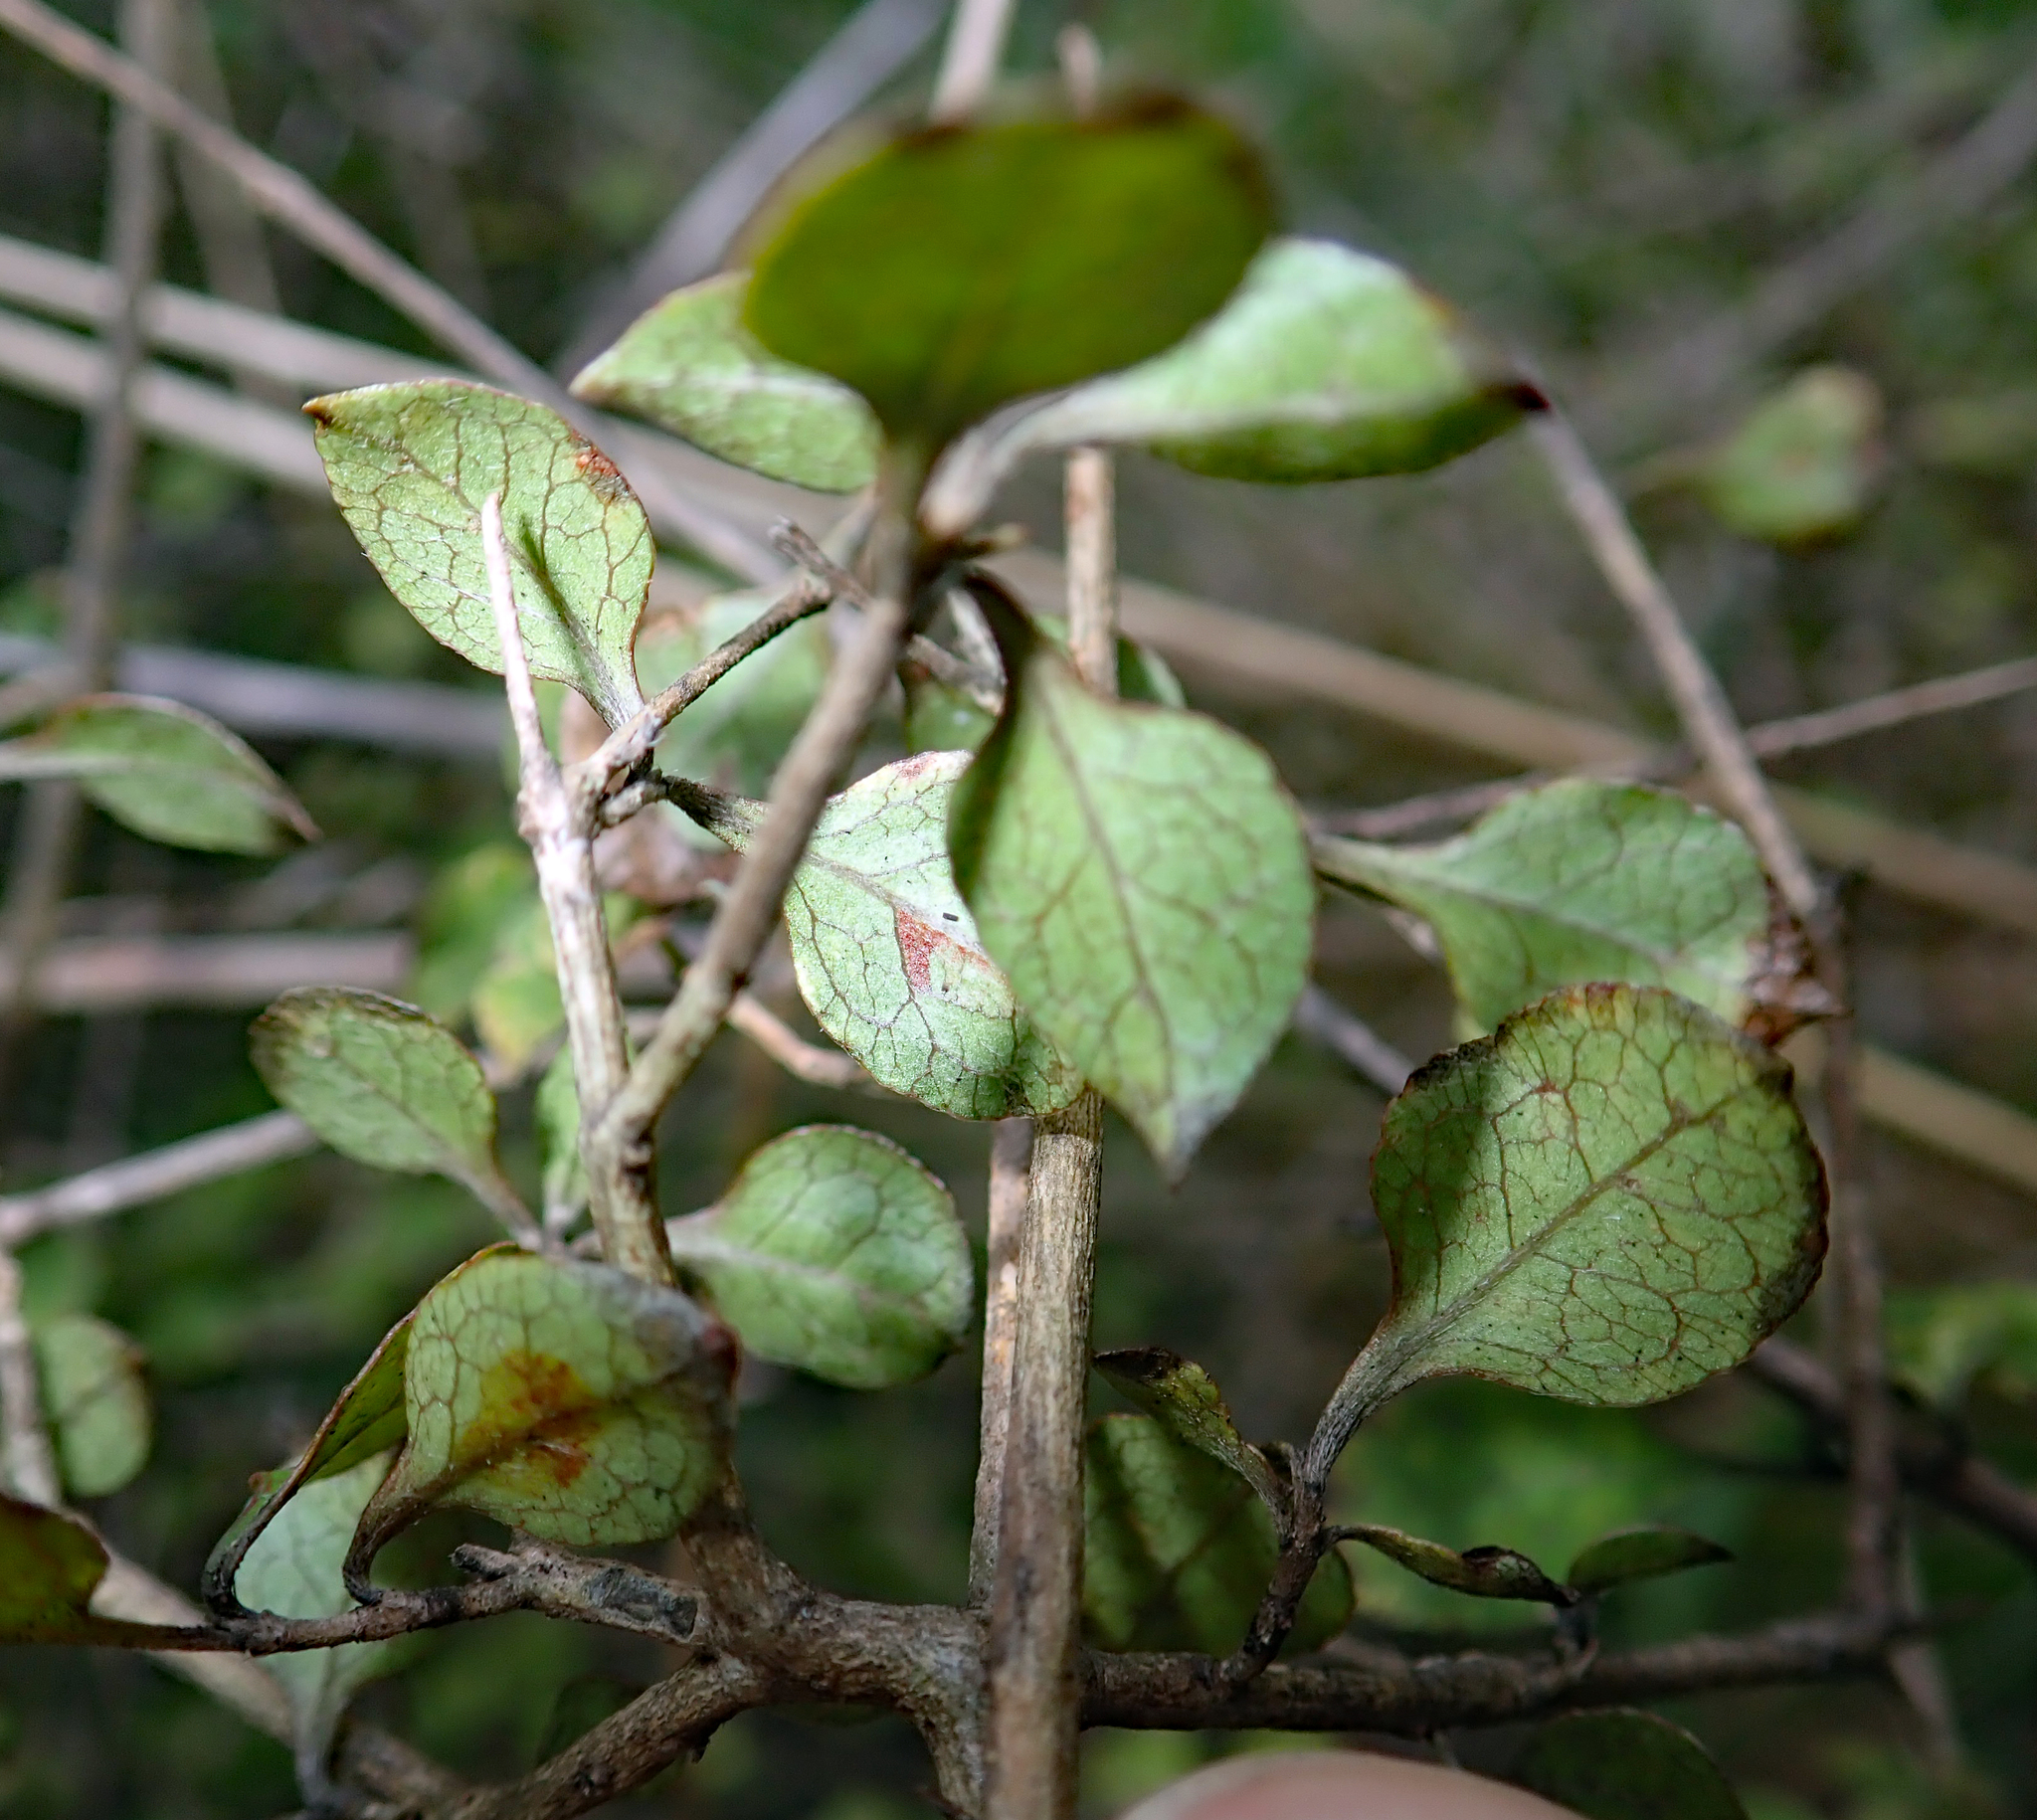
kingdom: Plantae
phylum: Tracheophyta
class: Magnoliopsida
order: Gentianales
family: Rubiaceae
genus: Coprosma
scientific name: Coprosma areolata
